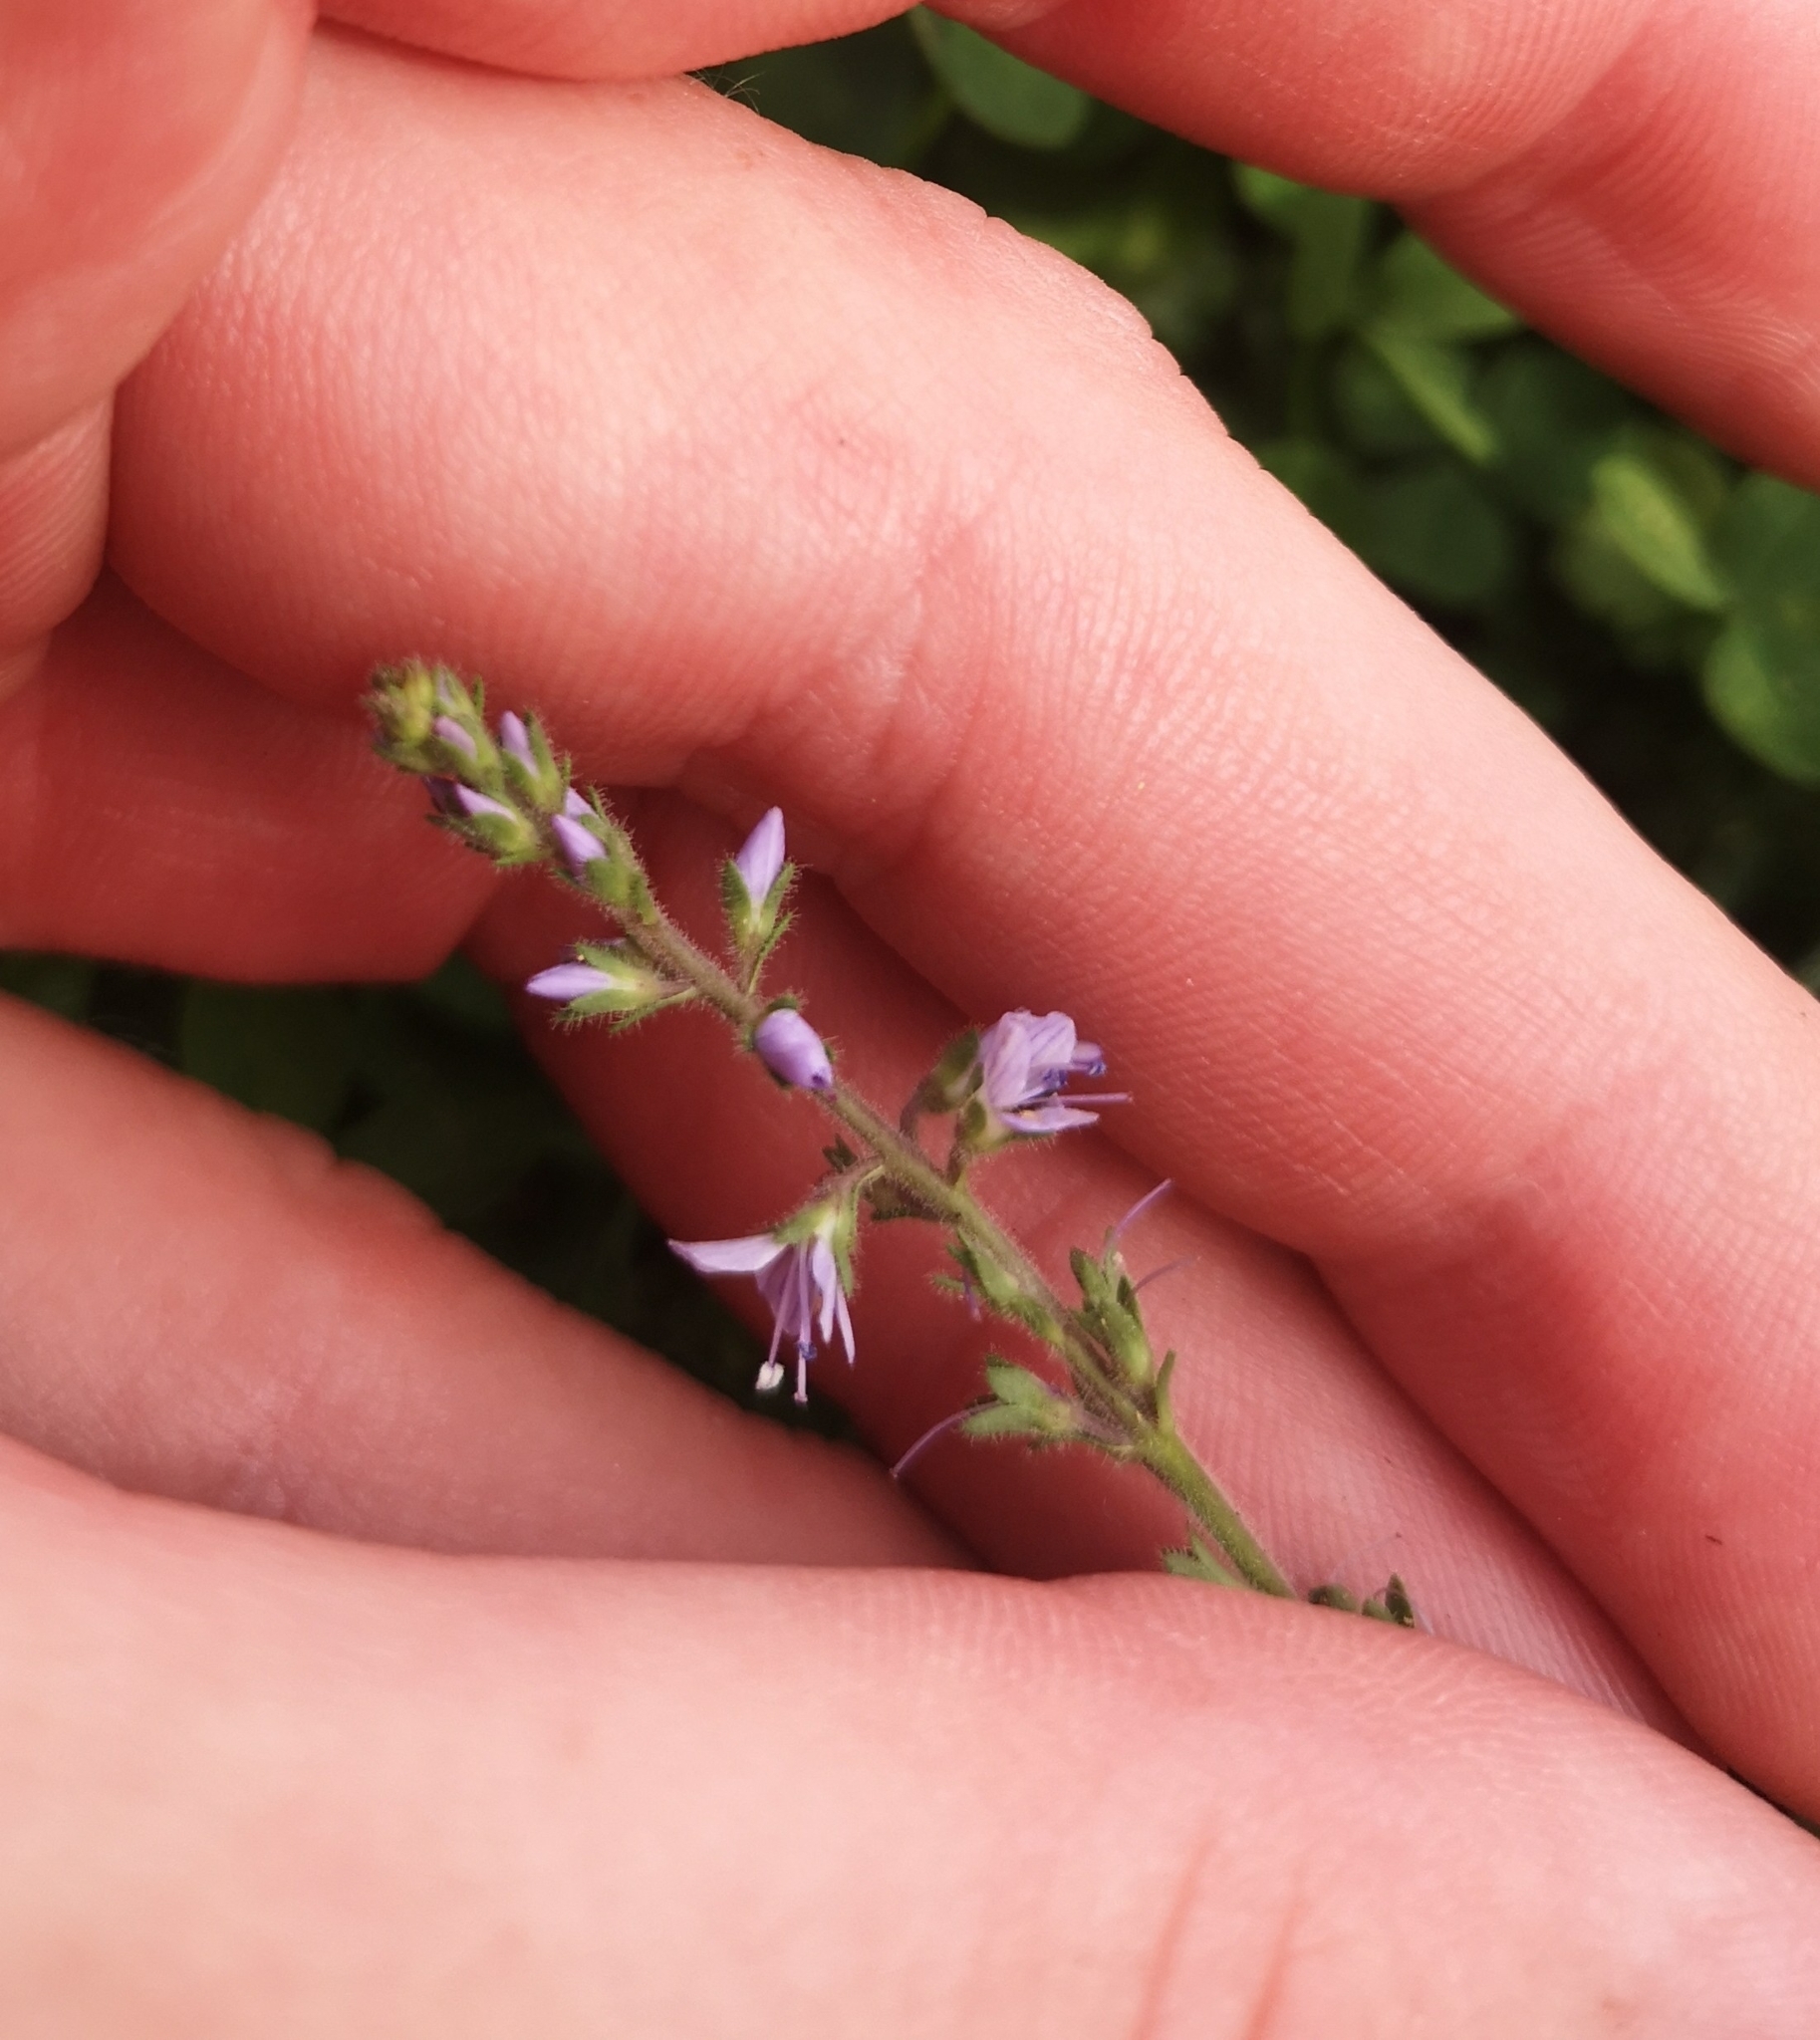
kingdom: Plantae
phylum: Tracheophyta
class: Magnoliopsida
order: Lamiales
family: Plantaginaceae
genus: Veronica
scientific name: Veronica officinalis
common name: Common speedwell
